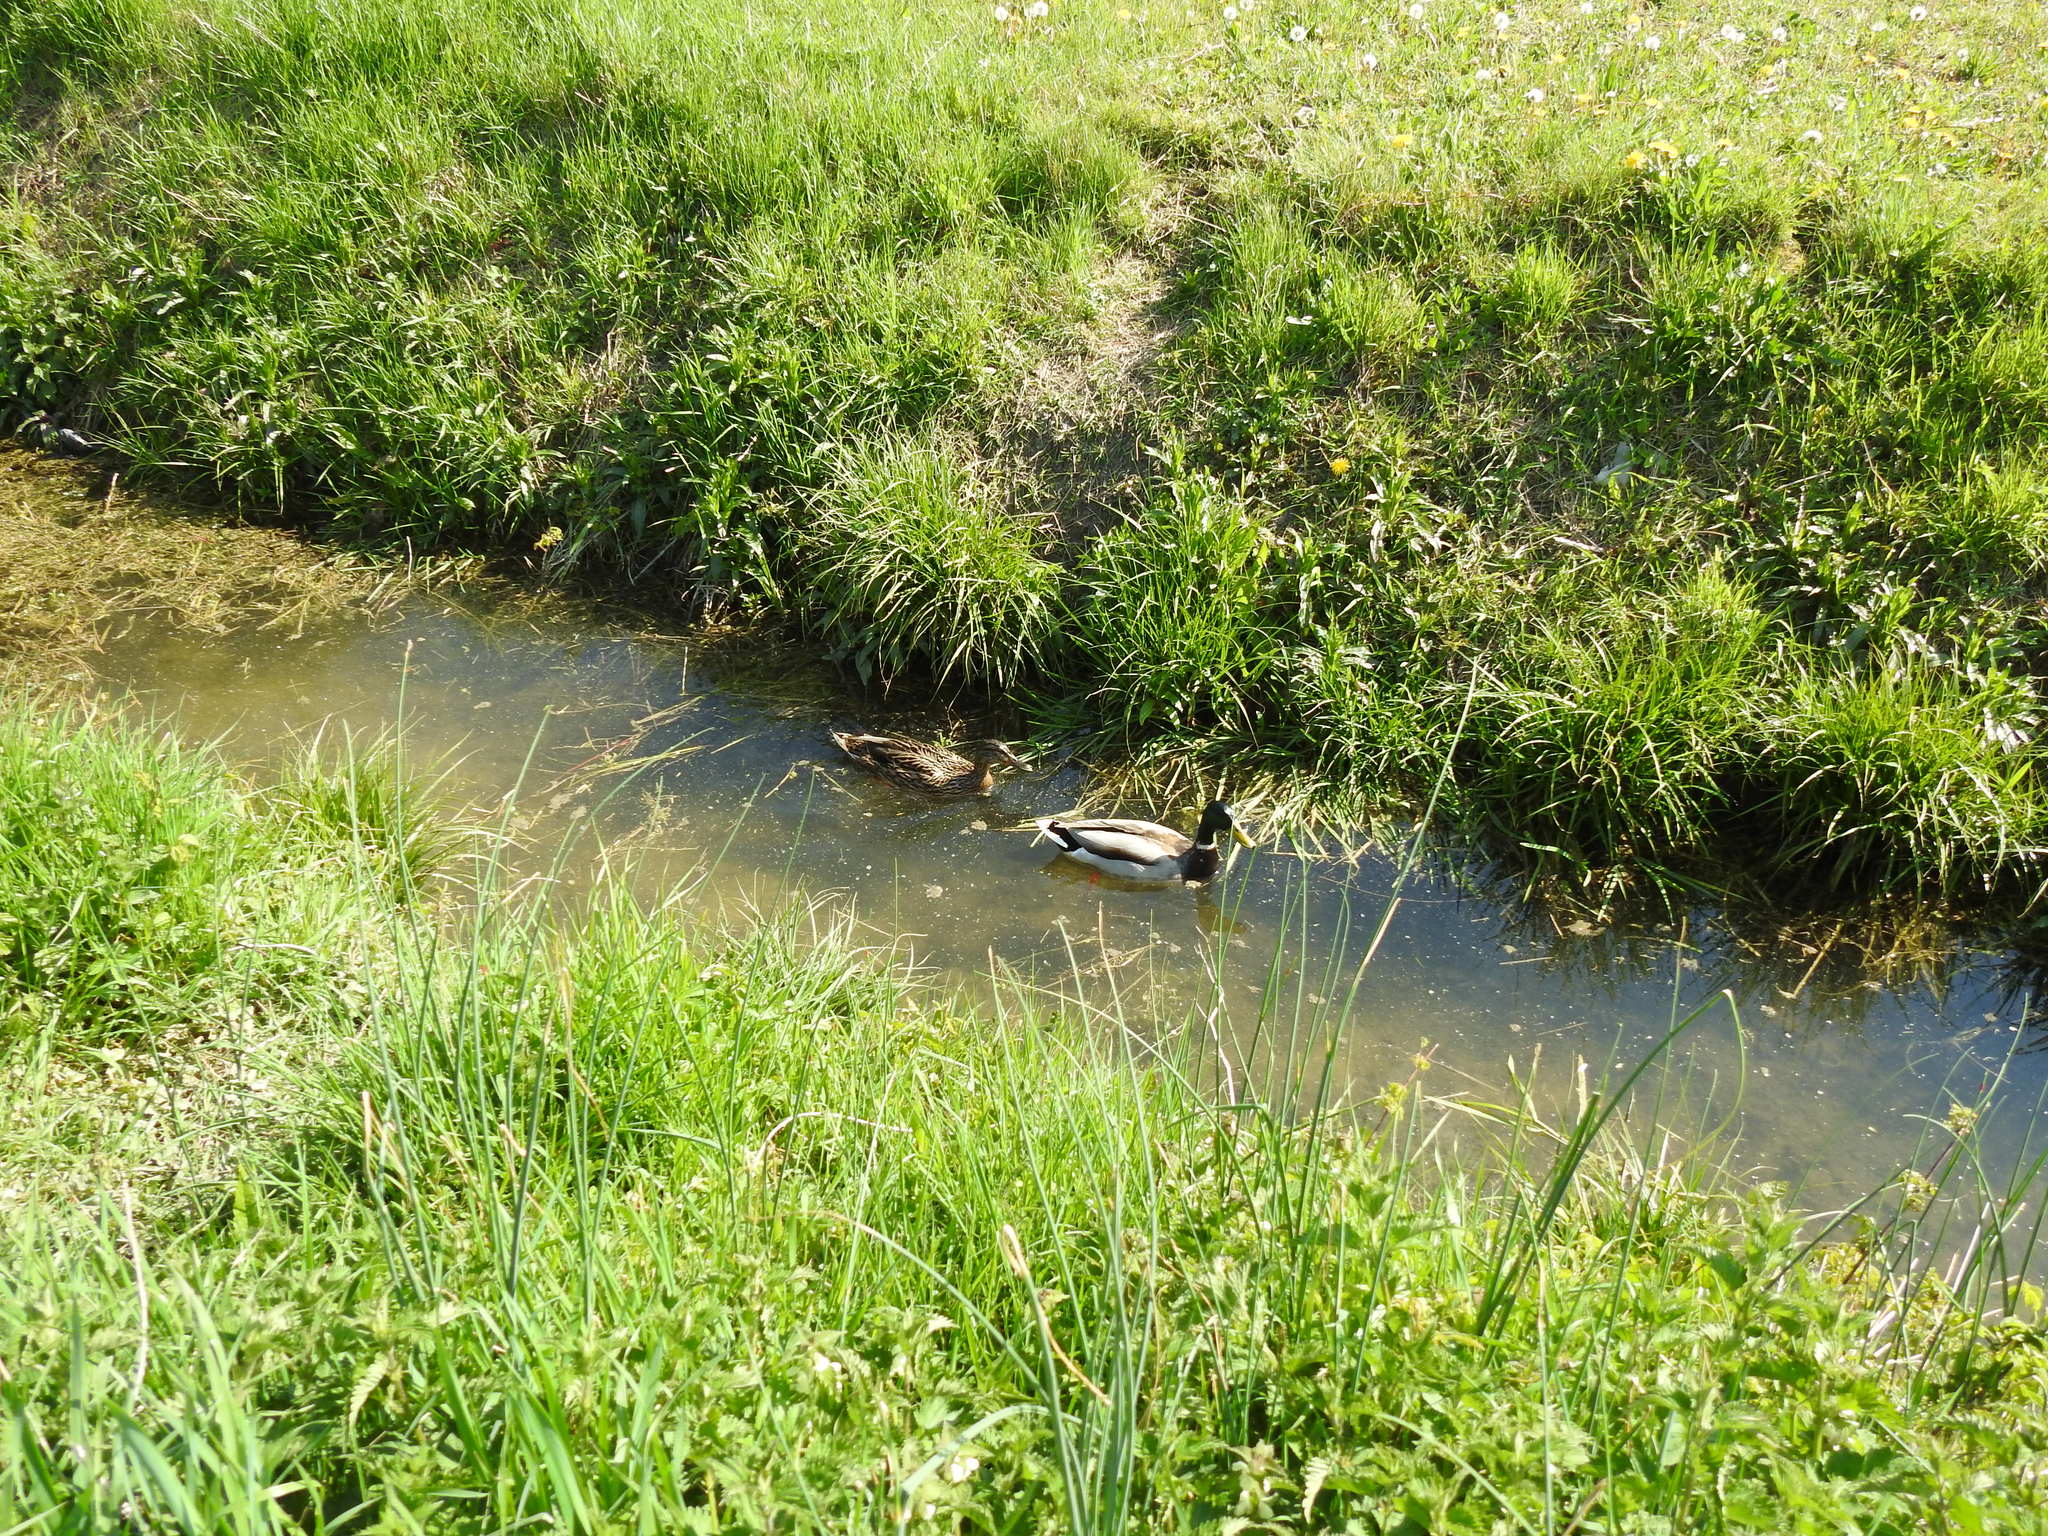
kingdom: Animalia
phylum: Chordata
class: Aves
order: Anseriformes
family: Anatidae
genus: Anas
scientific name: Anas platyrhynchos
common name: Mallard
